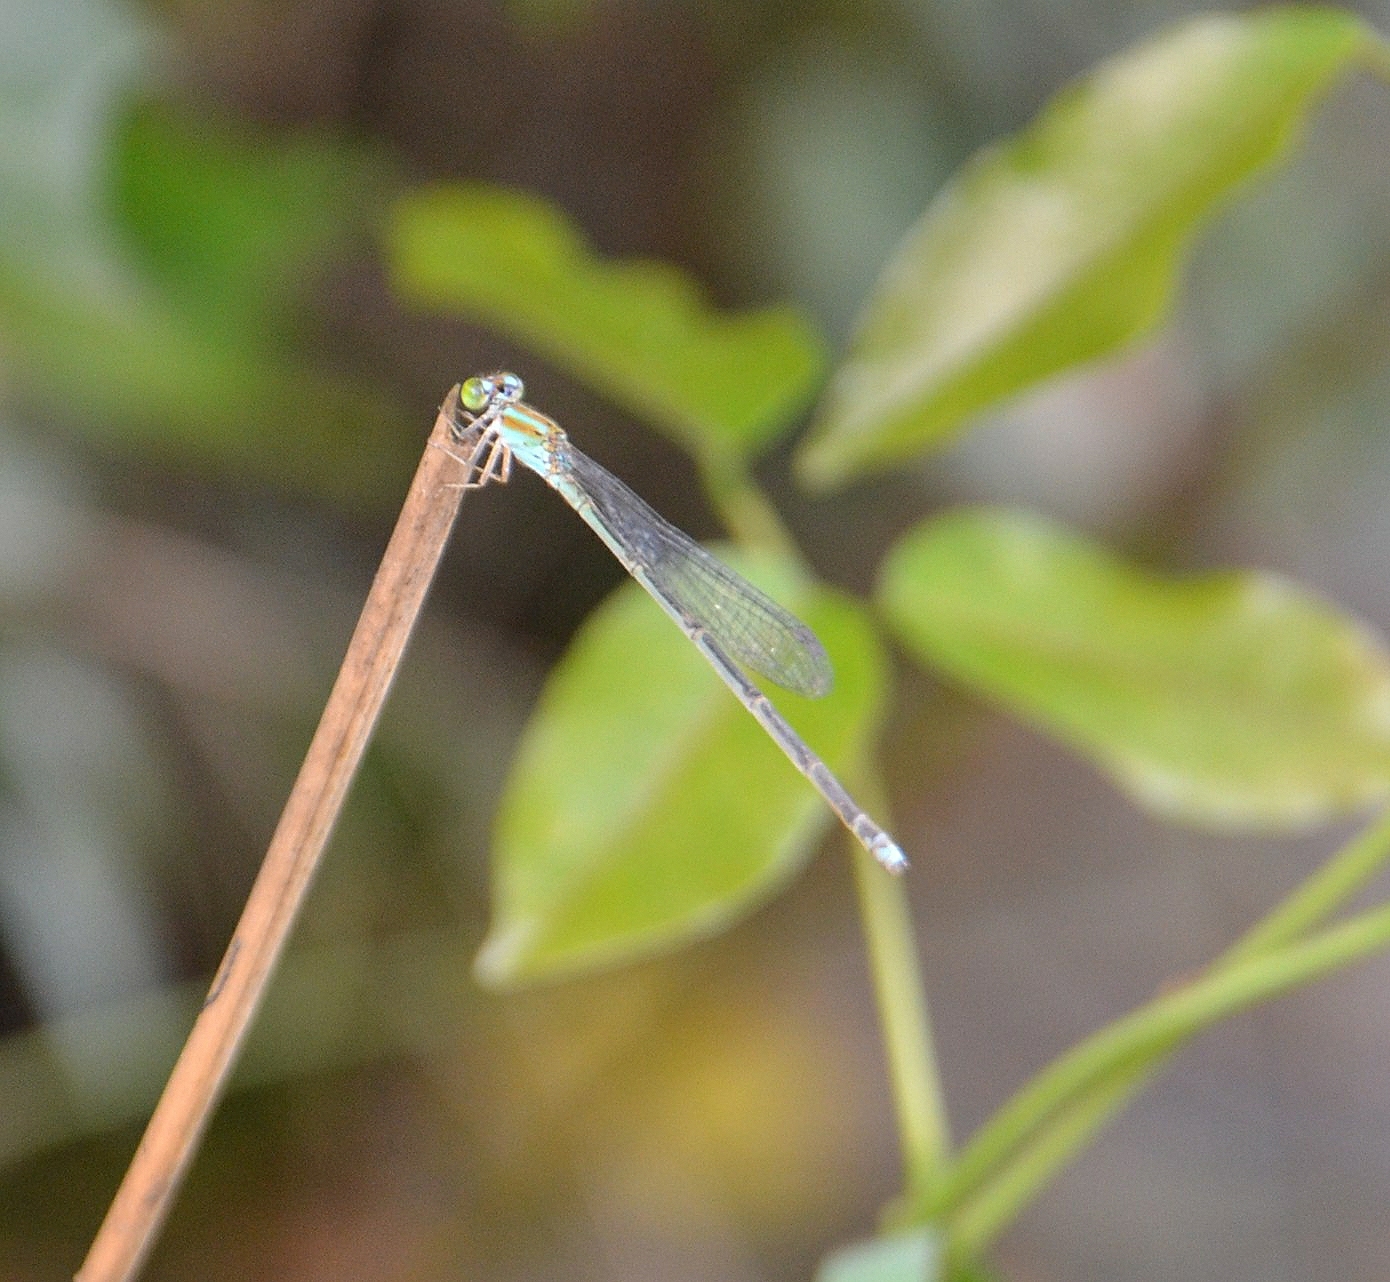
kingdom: Animalia
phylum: Arthropoda
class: Insecta
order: Odonata
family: Coenagrionidae
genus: Pseudagrion
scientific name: Pseudagrion microcephalum
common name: Blue riverdamsel
